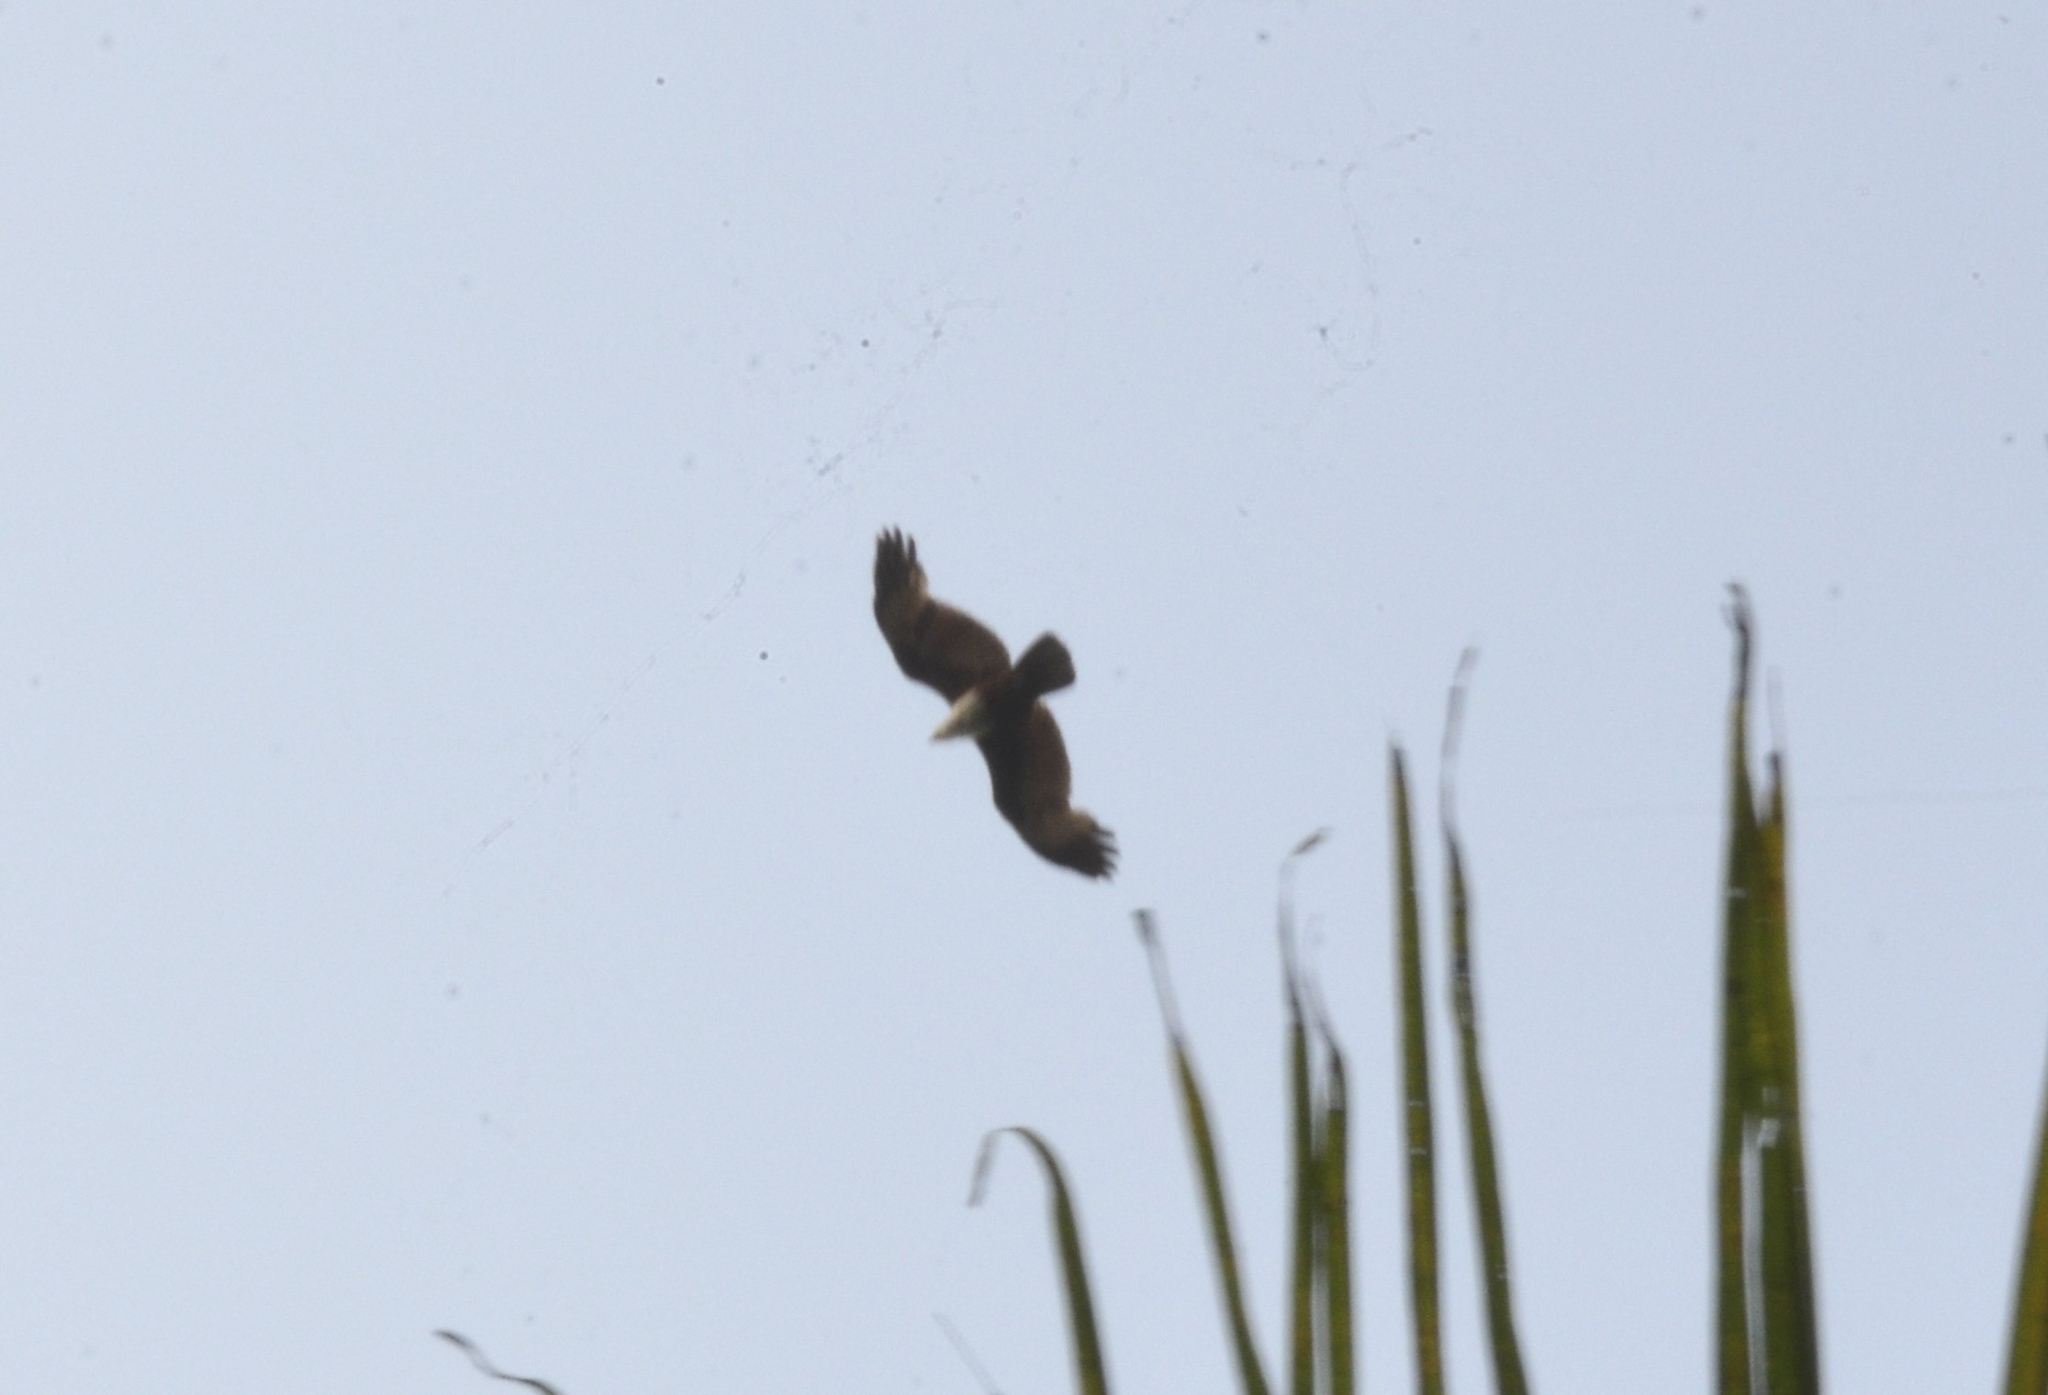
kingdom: Animalia
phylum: Chordata
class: Aves
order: Accipitriformes
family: Accipitridae
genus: Haliastur
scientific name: Haliastur indus
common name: Brahminy kite
